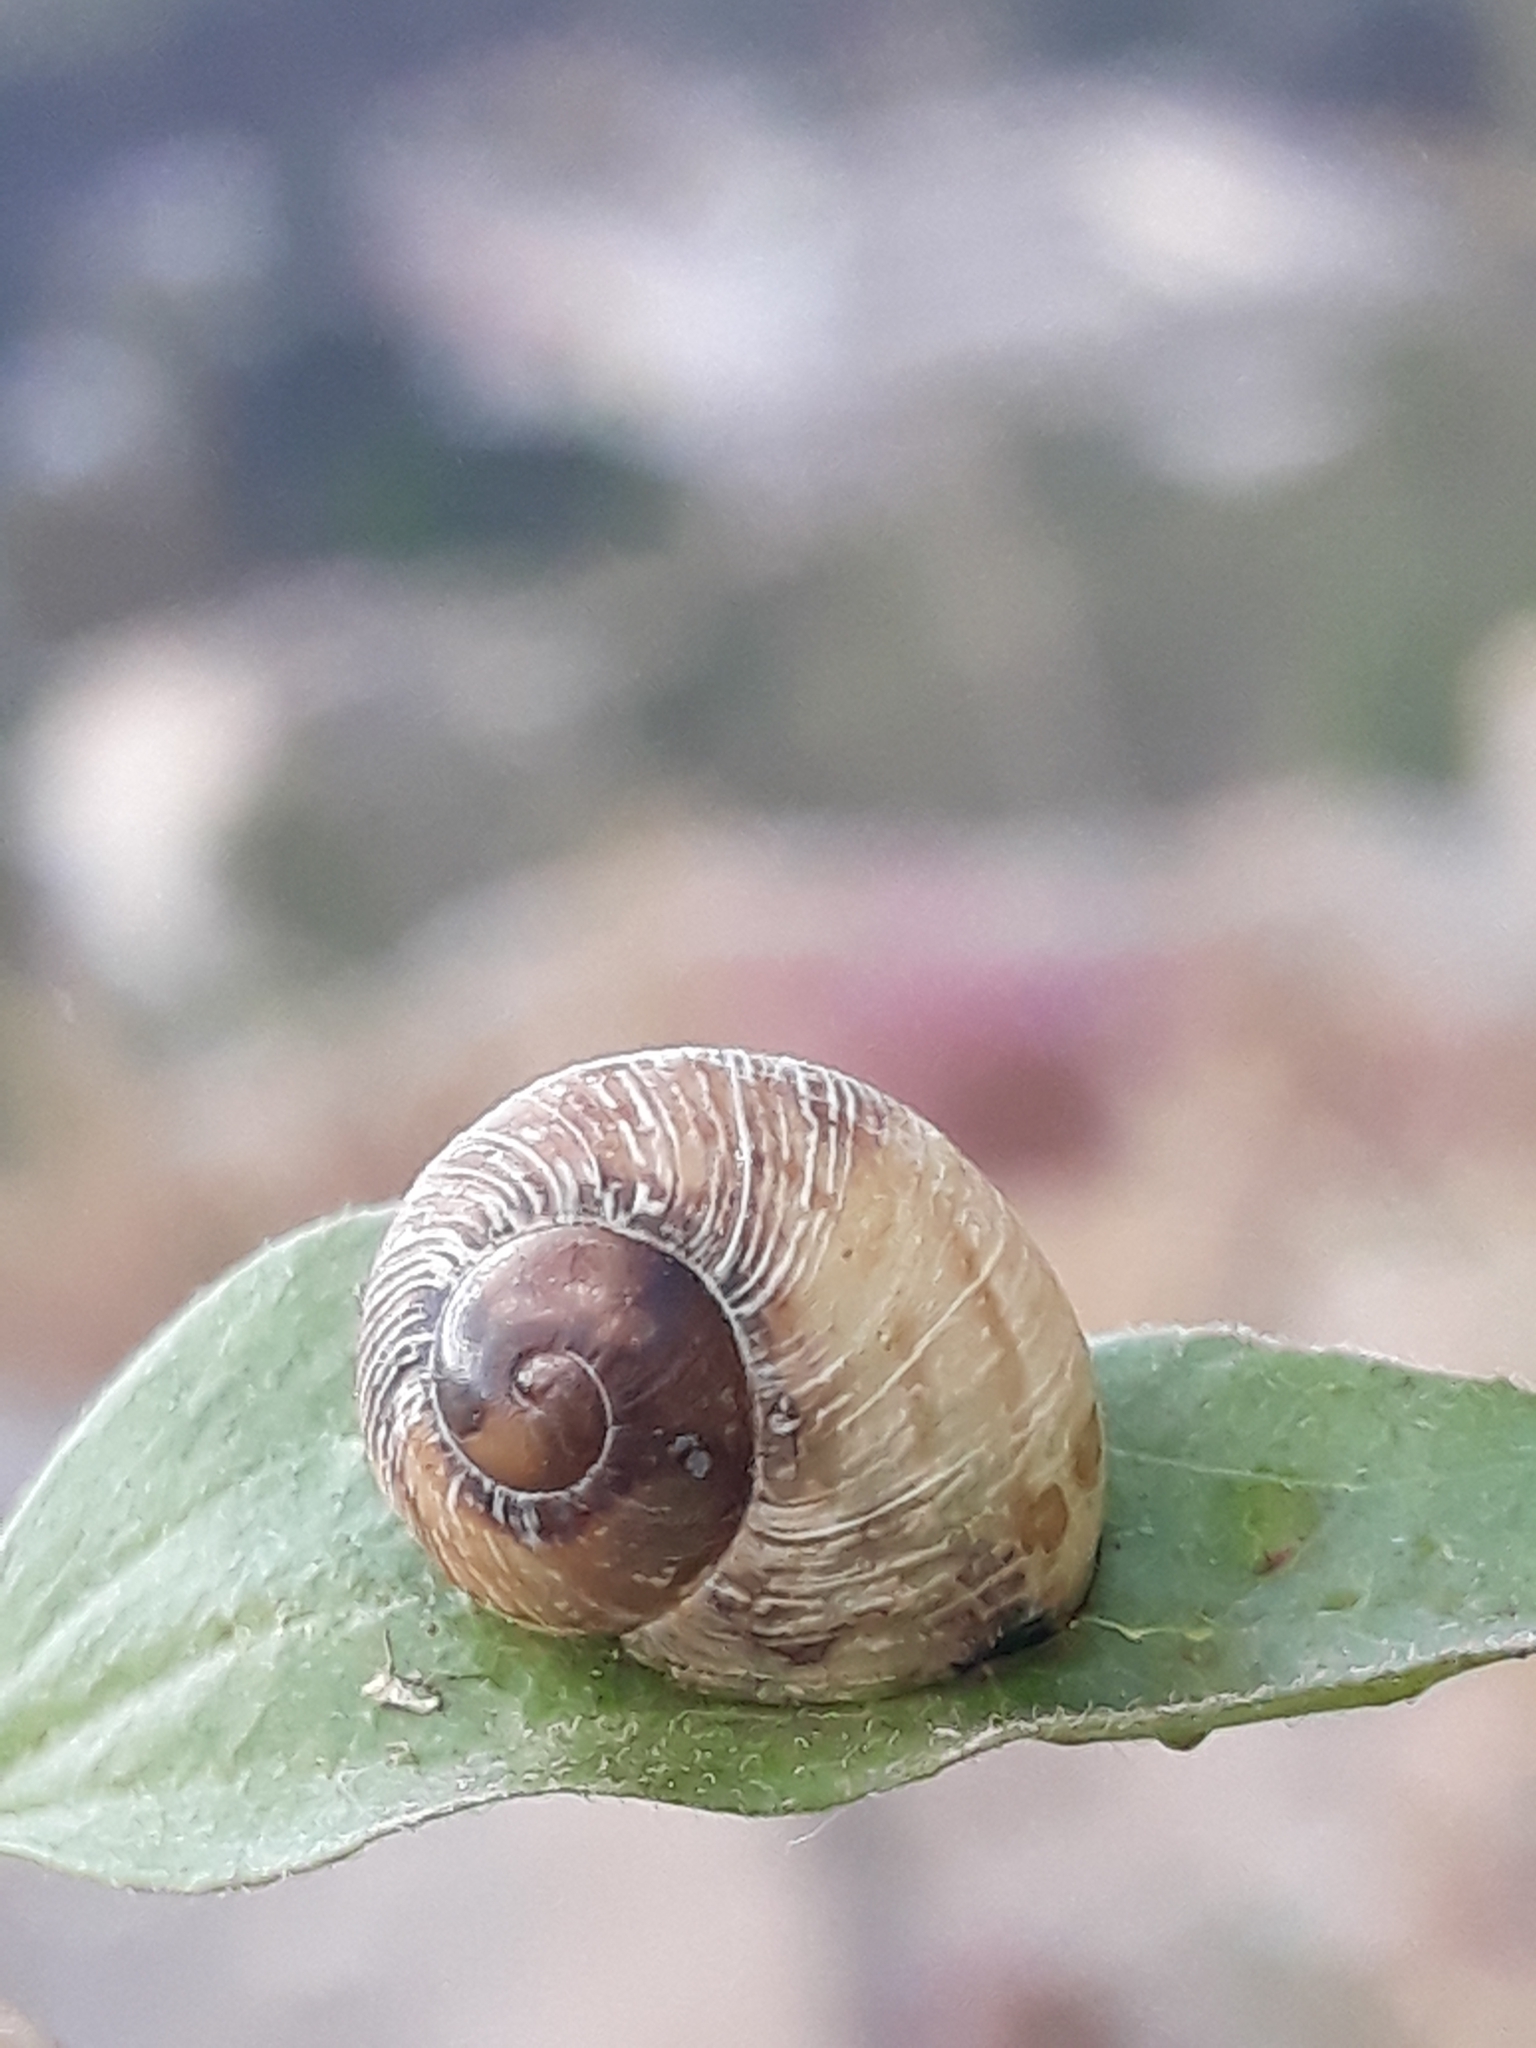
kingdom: Animalia
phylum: Mollusca
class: Gastropoda
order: Stylommatophora
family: Helicidae
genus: Cornu
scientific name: Cornu aspersum
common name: Brown garden snail
